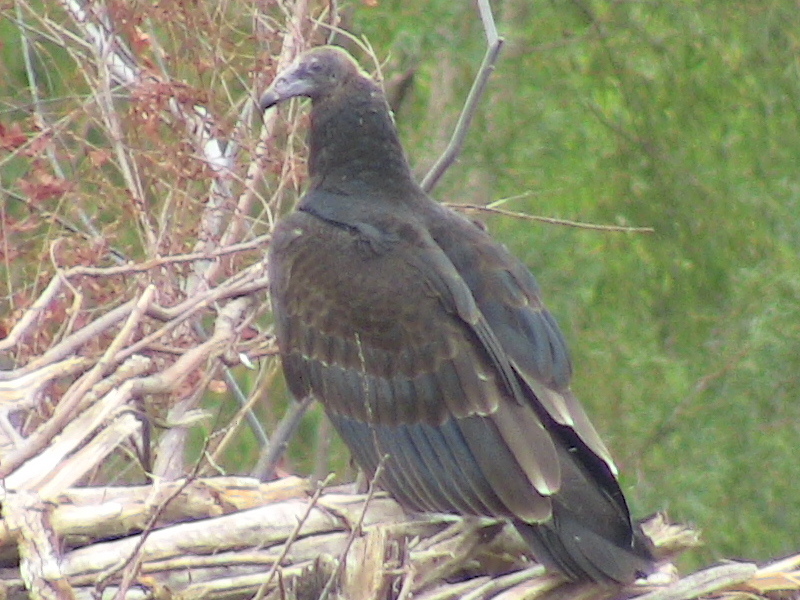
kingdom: Animalia
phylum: Chordata
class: Aves
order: Accipitriformes
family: Cathartidae
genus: Cathartes
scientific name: Cathartes aura
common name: Turkey vulture
